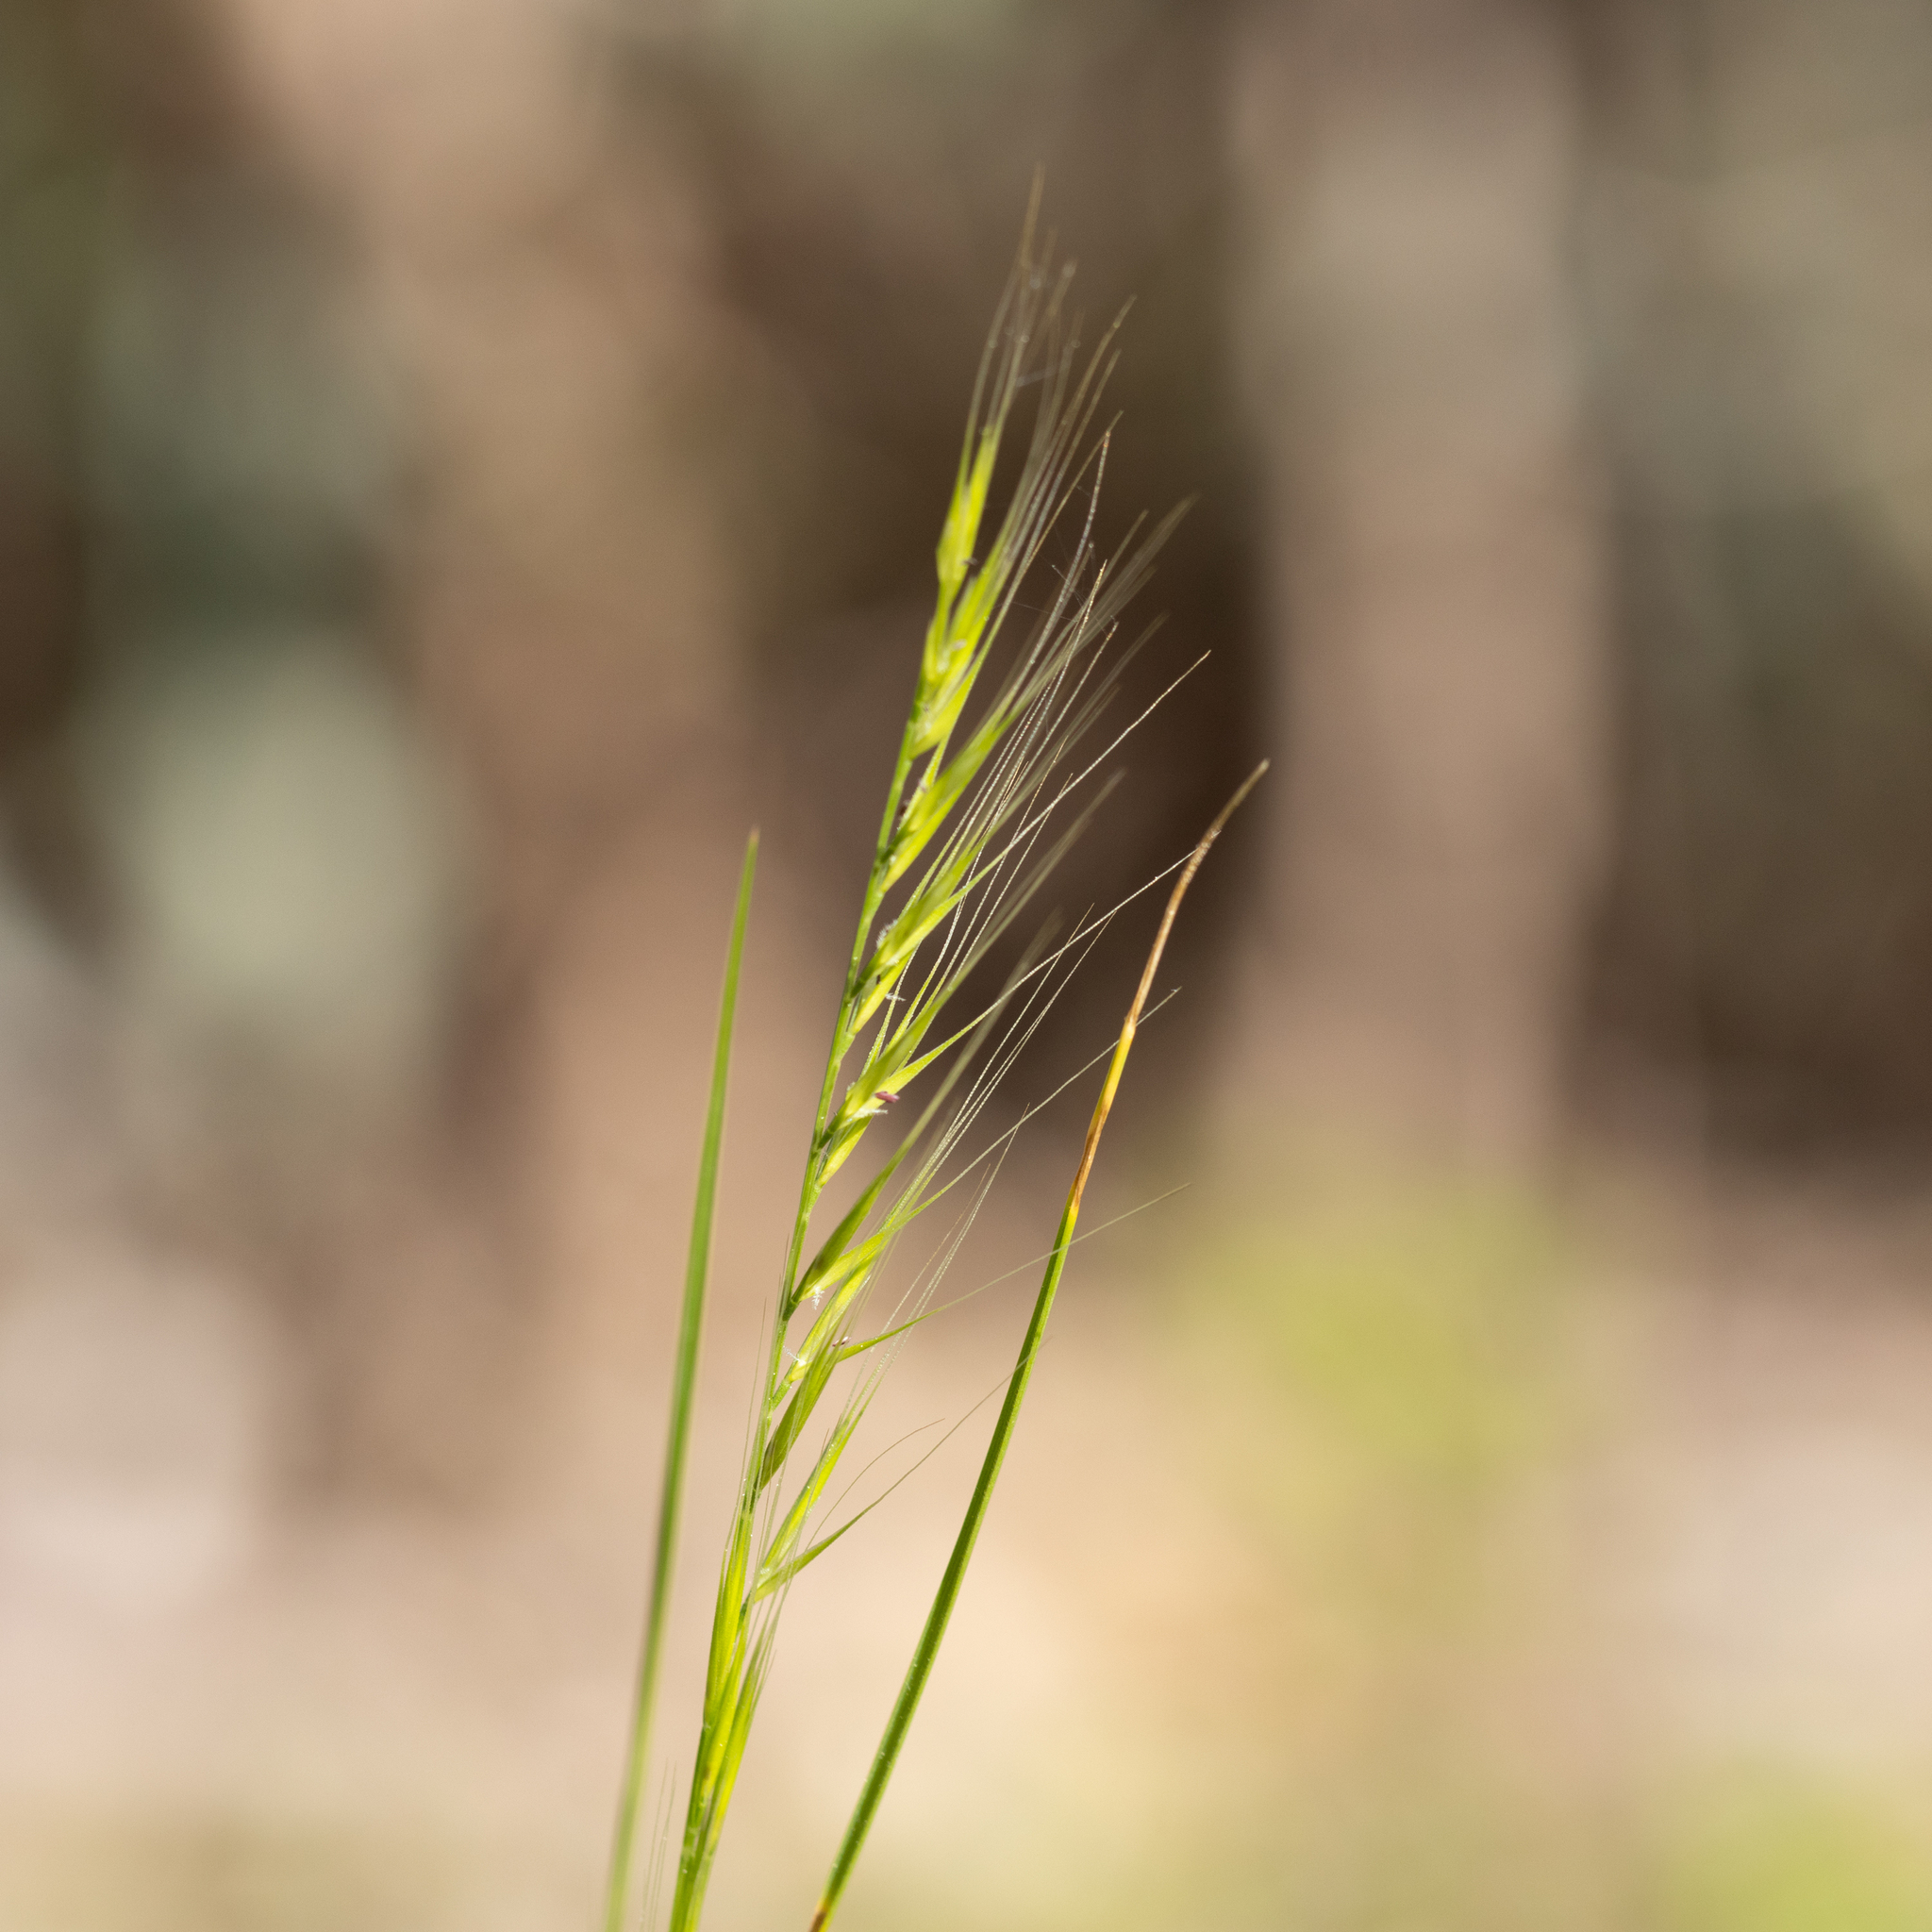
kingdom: Plantae
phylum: Tracheophyta
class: Liliopsida
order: Poales
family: Poaceae
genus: Festuca
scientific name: Festuca myuros
